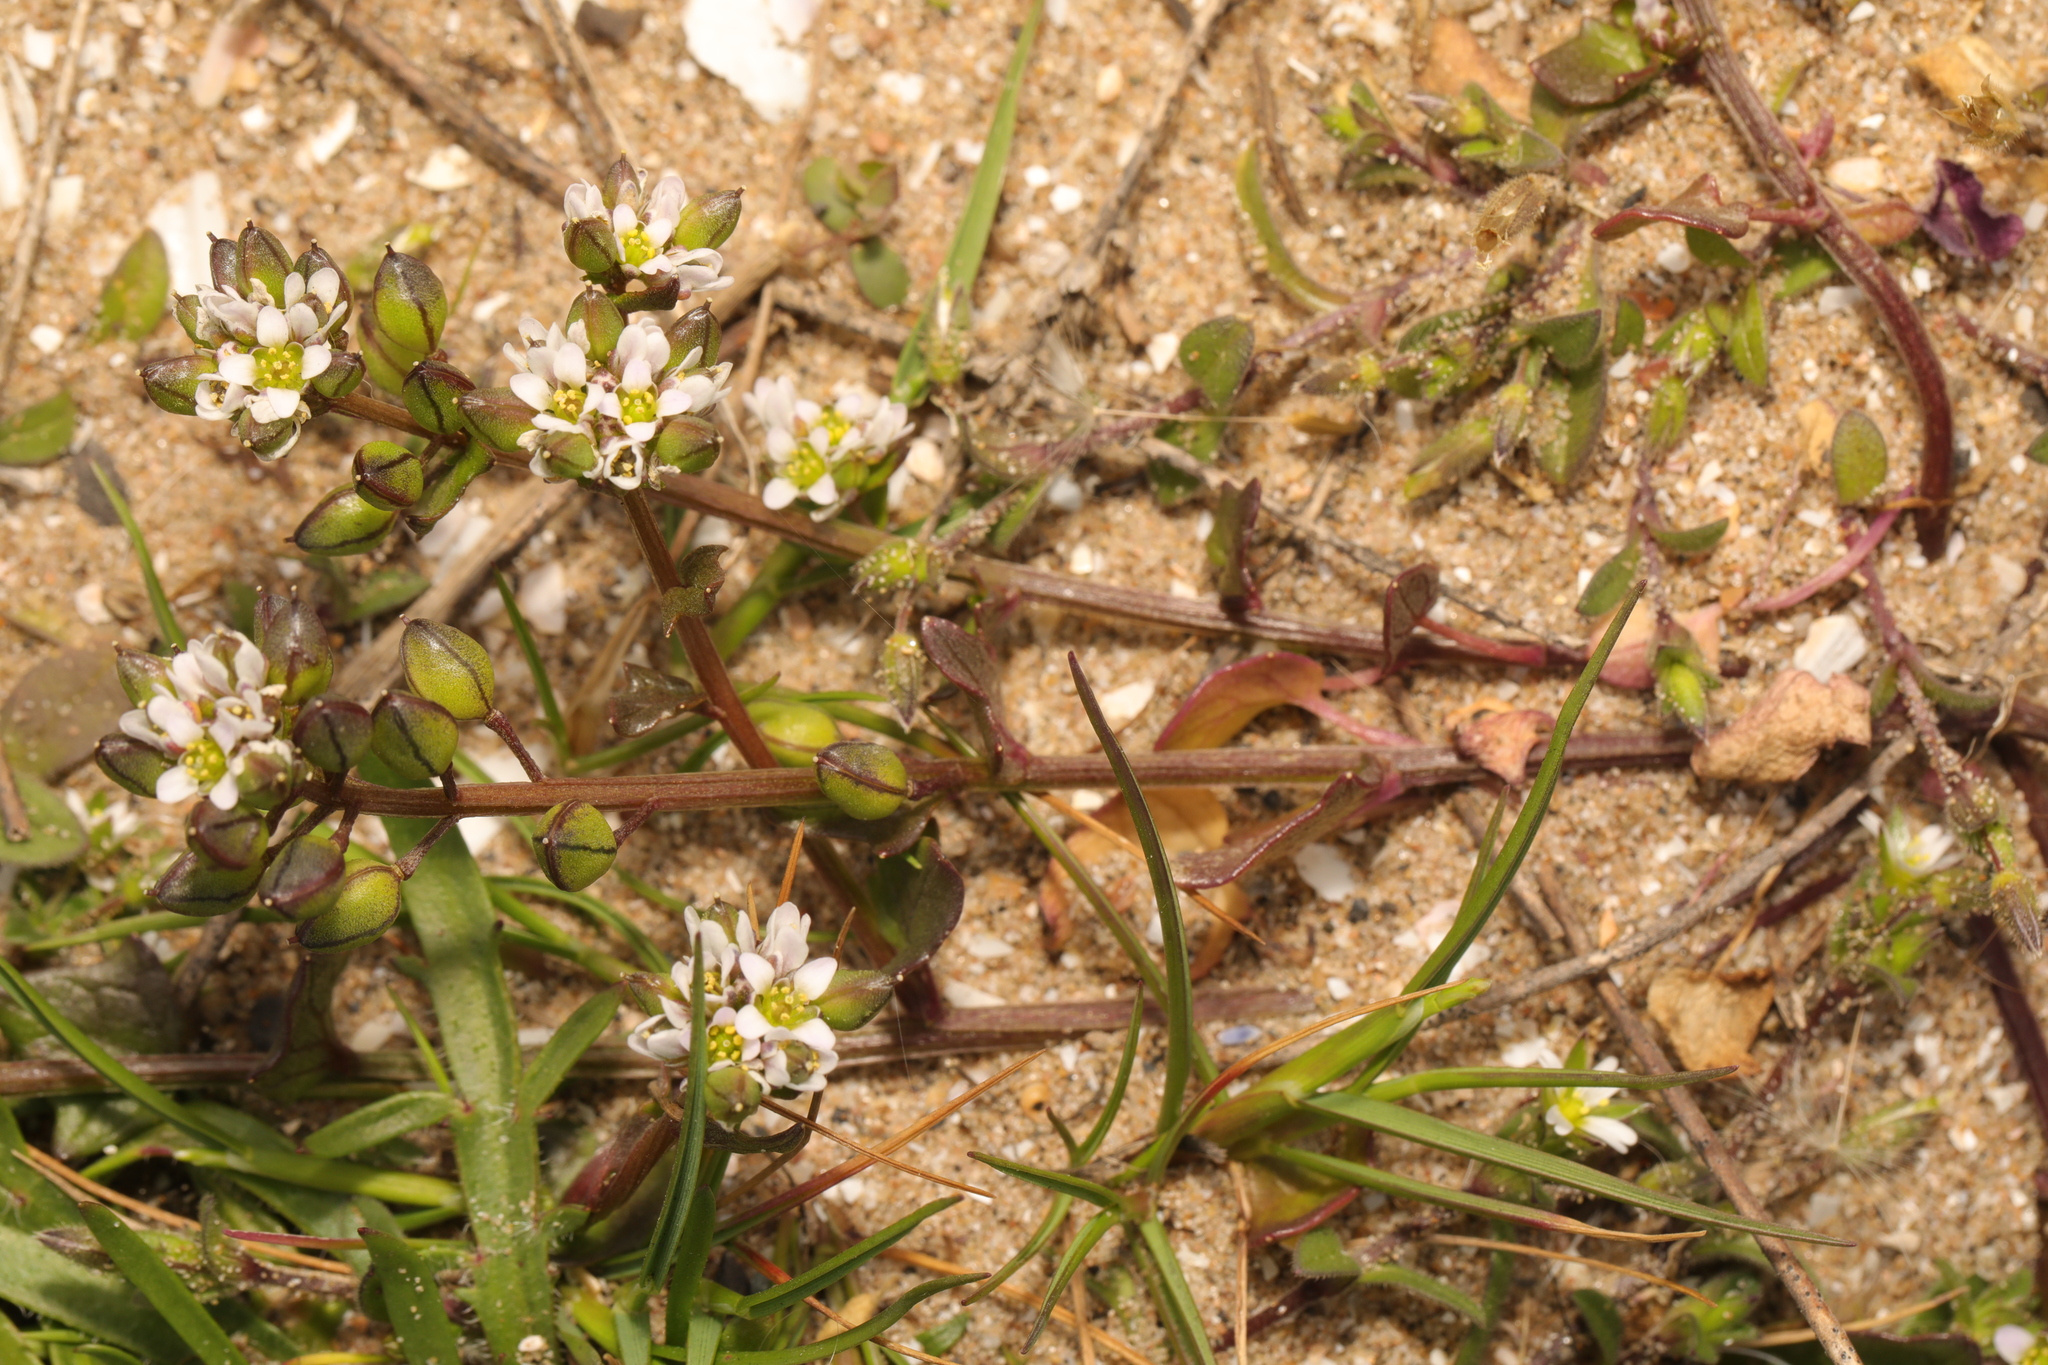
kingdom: Plantae
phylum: Tracheophyta
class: Magnoliopsida
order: Brassicales
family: Brassicaceae
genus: Cochlearia
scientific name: Cochlearia danica
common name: Early scurvygrass
